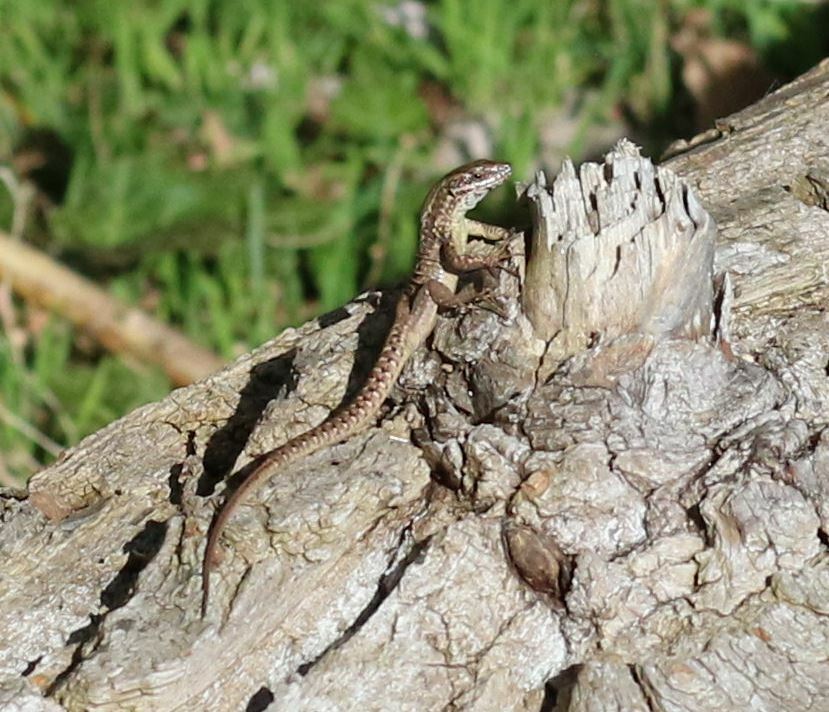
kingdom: Animalia
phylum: Chordata
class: Squamata
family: Lacertidae
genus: Podarcis
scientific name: Podarcis muralis
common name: Common wall lizard
